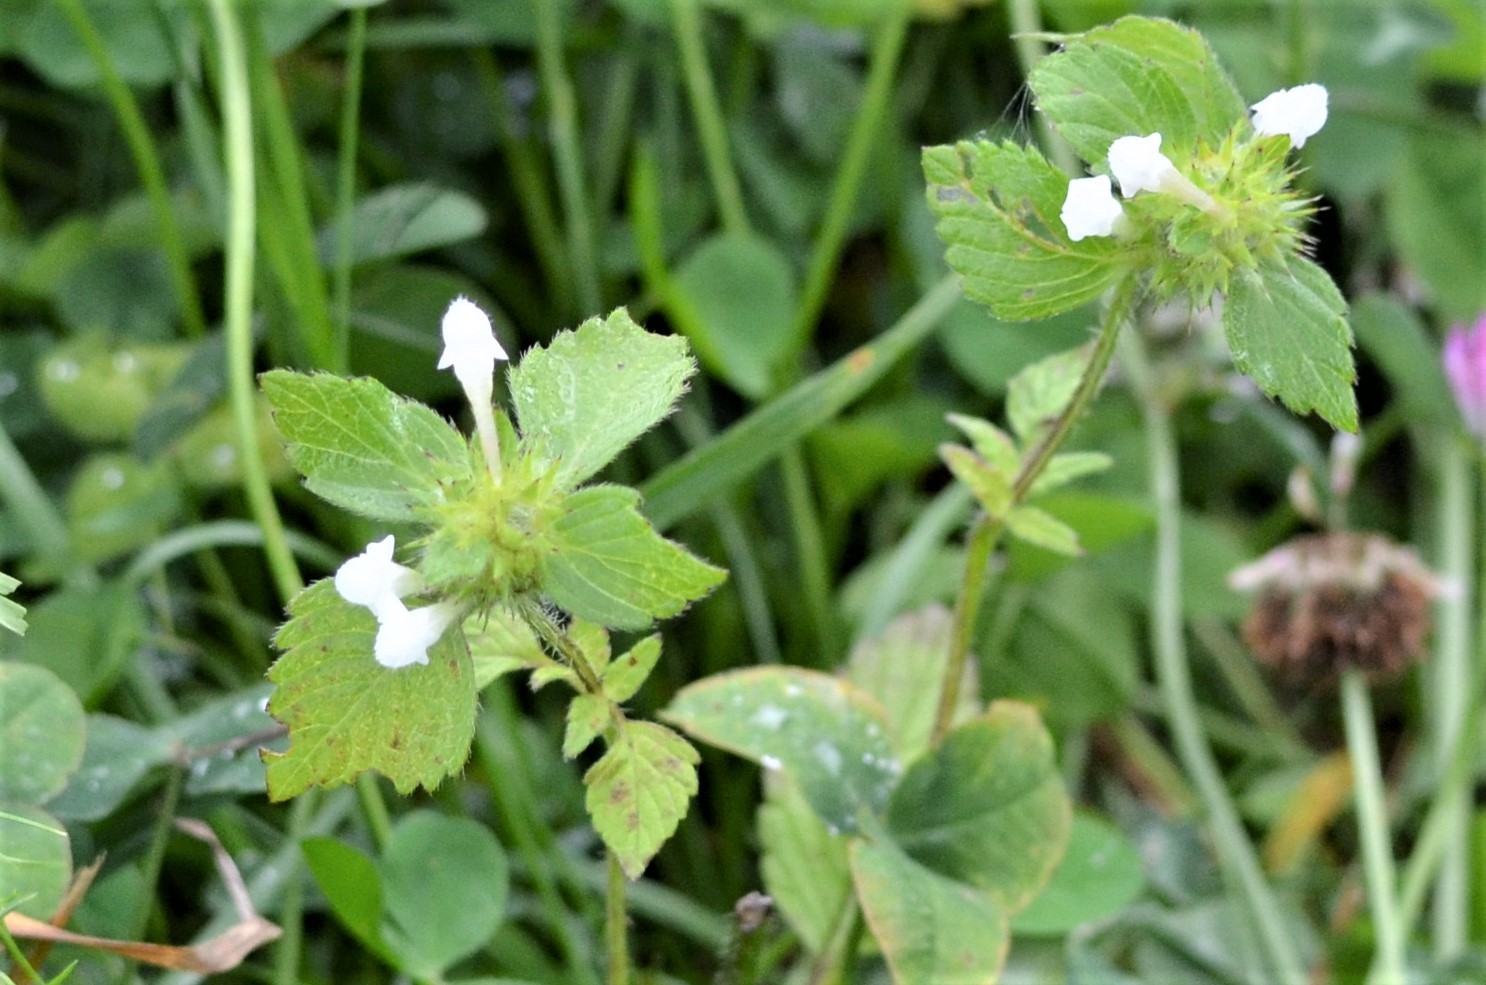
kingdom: Plantae
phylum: Tracheophyta
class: Magnoliopsida
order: Lamiales
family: Lamiaceae
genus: Galeopsis
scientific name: Galeopsis tetrahit
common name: Common hemp-nettle
